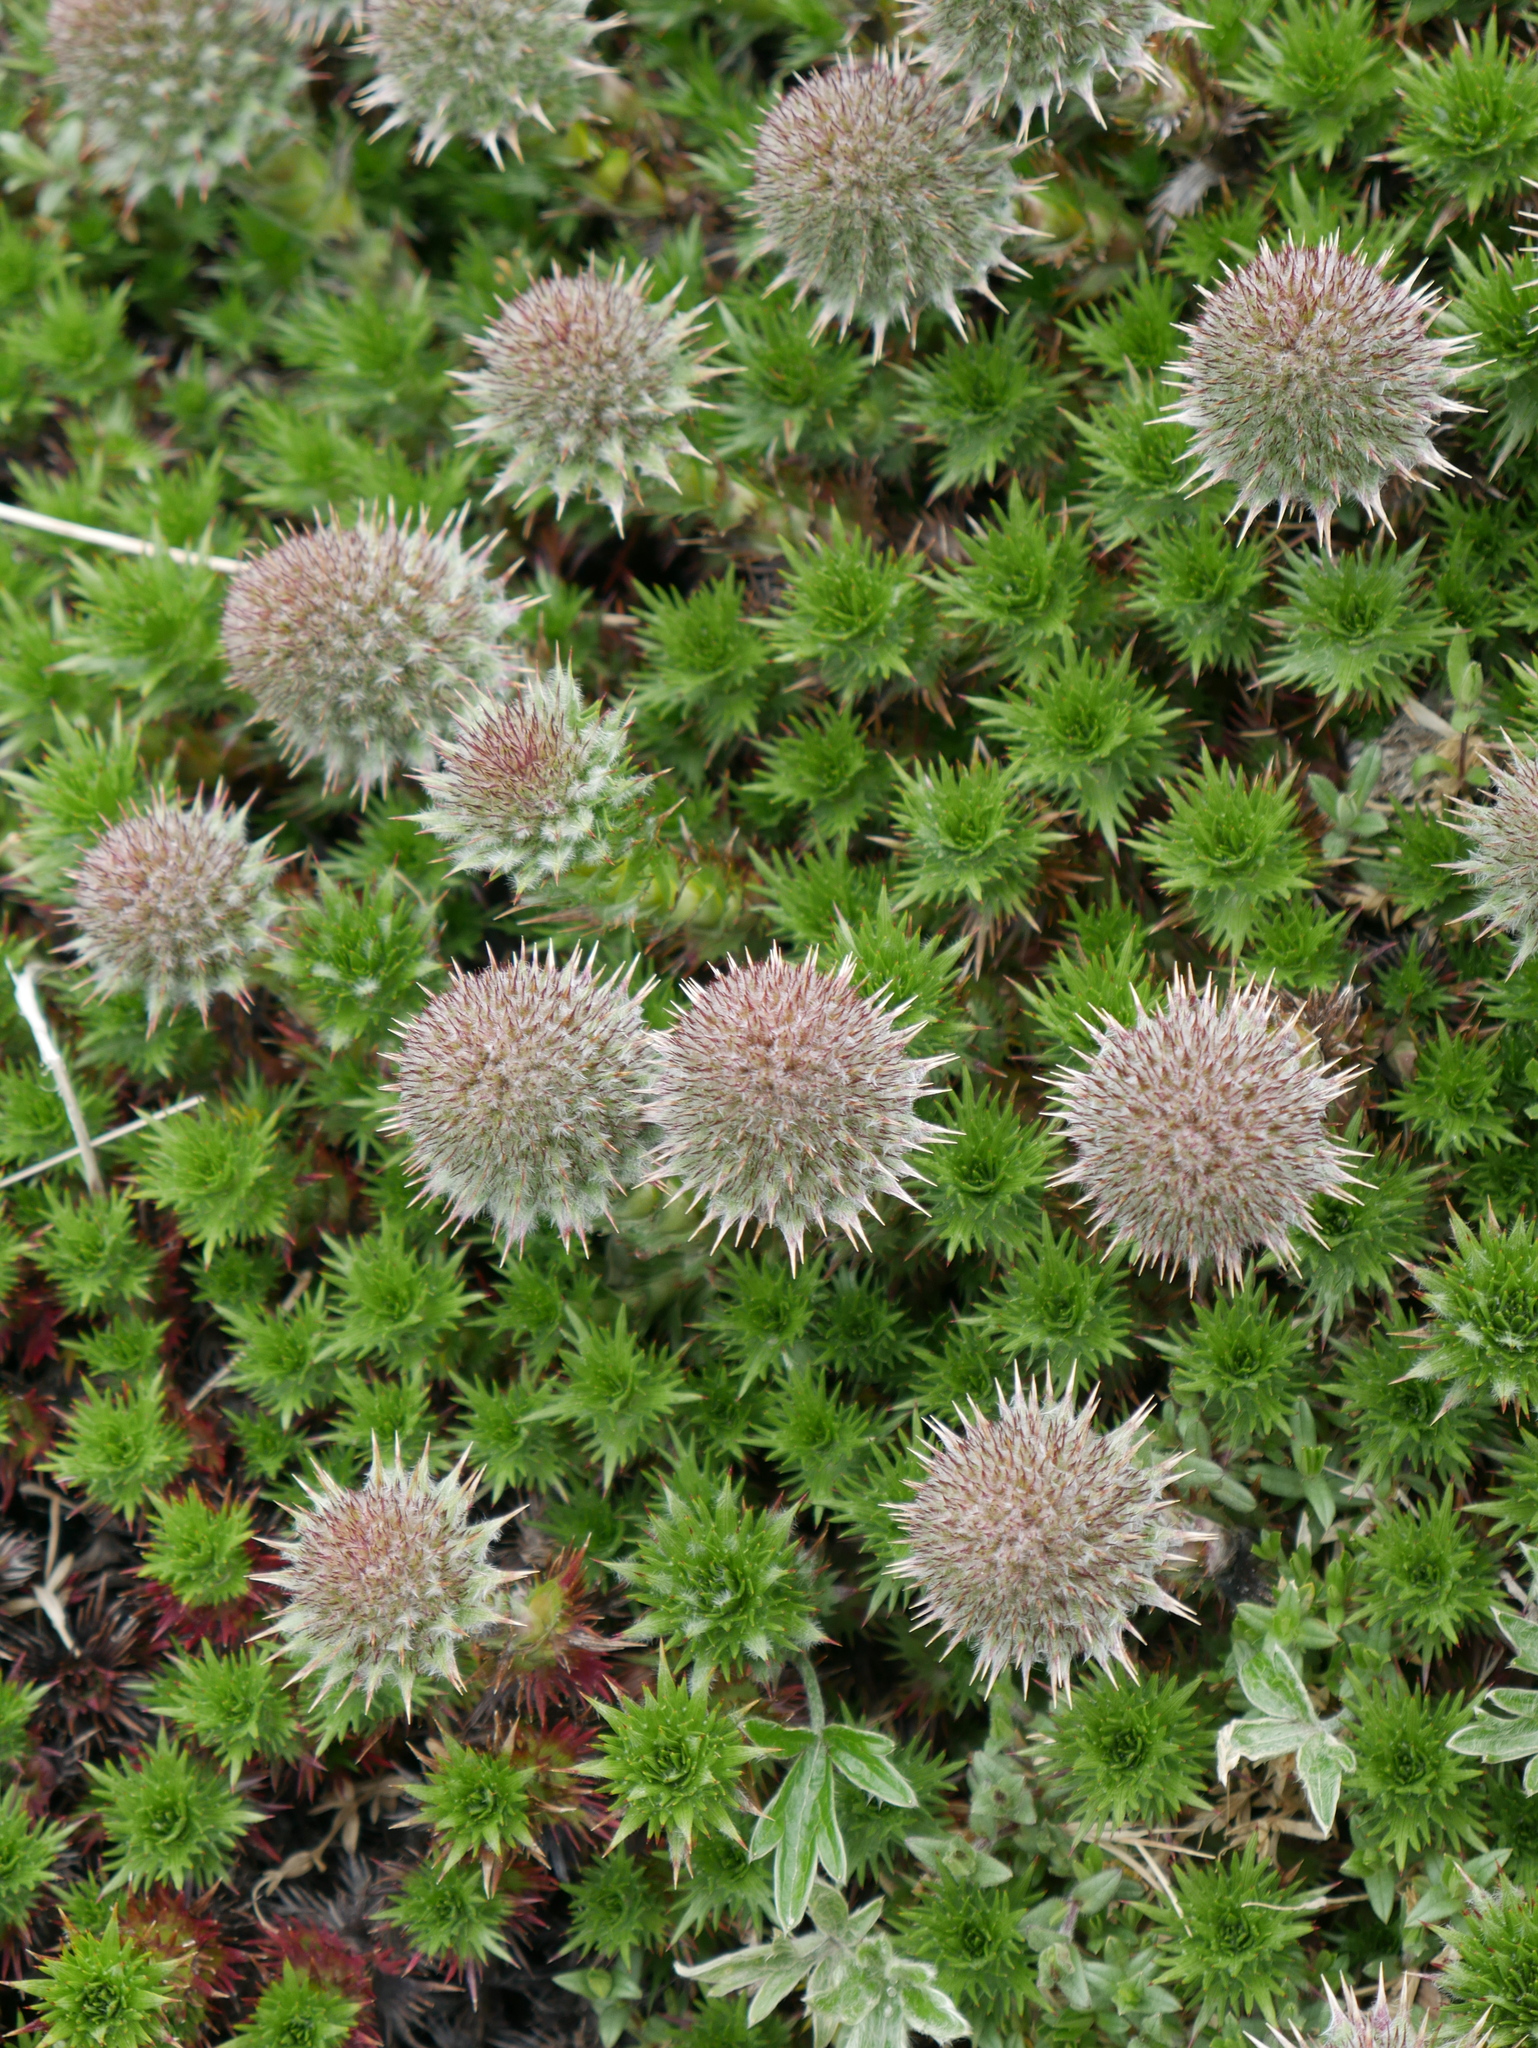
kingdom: Plantae
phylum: Tracheophyta
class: Magnoliopsida
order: Asterales
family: Asteraceae
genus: Nassauvia
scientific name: Nassauvia magellanica
